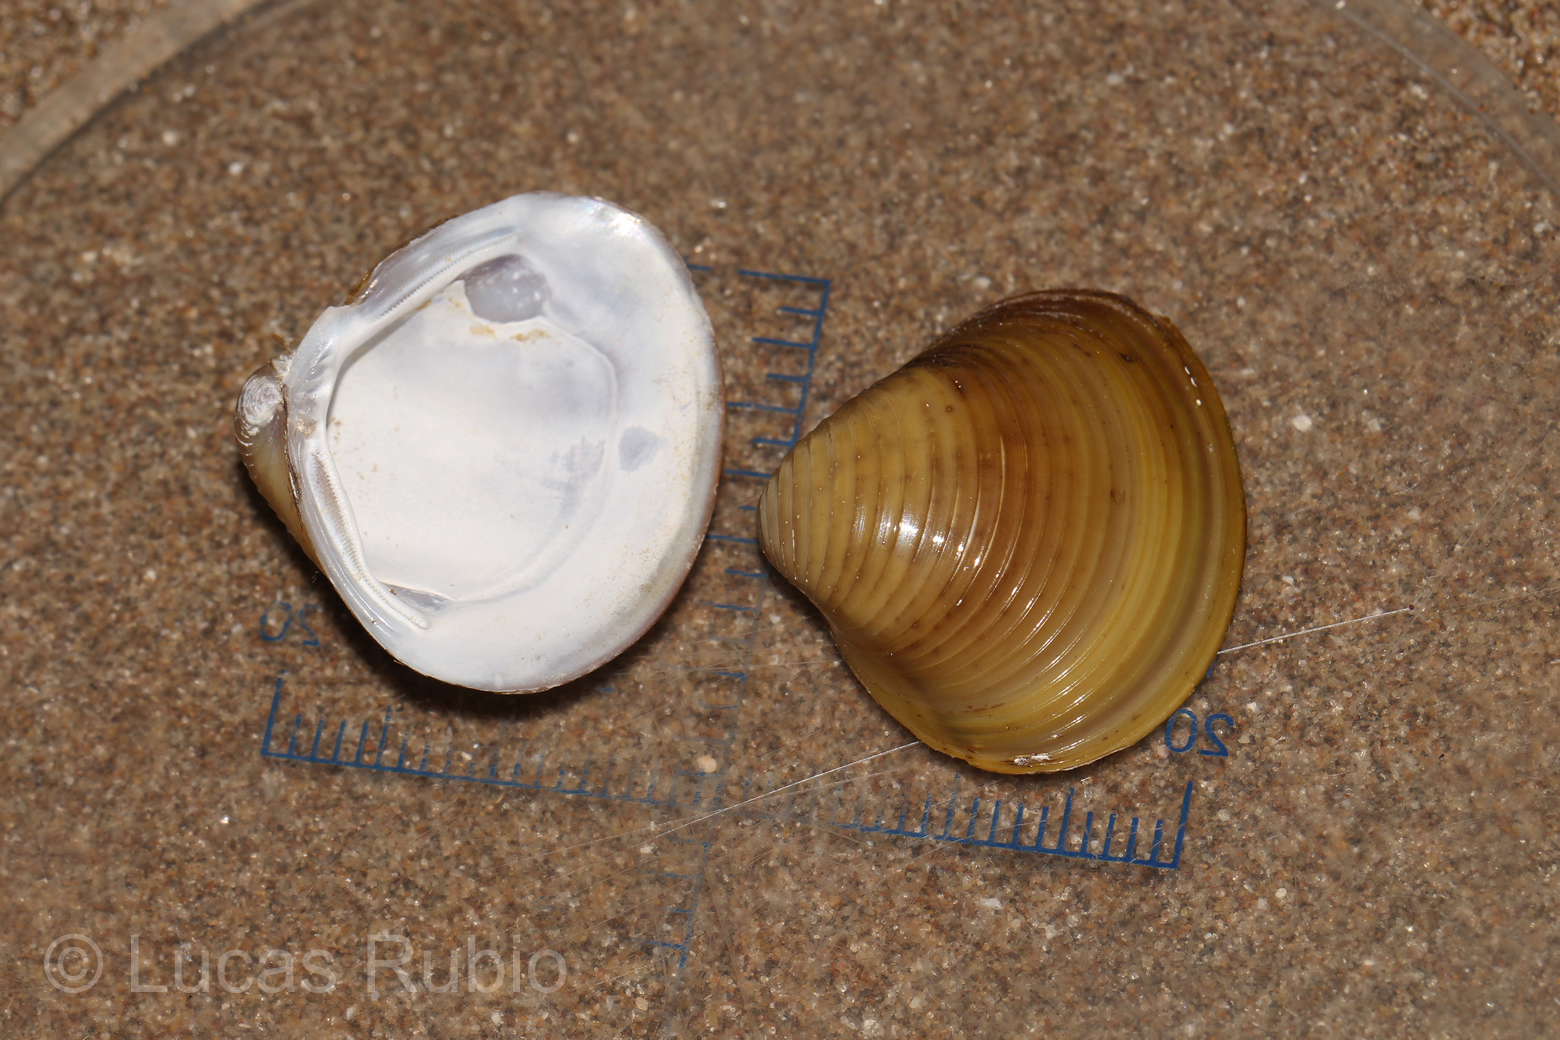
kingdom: Animalia
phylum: Mollusca
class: Bivalvia
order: Venerida
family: Cyrenidae
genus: Corbicula
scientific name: Corbicula fluminea
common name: Asian clam
